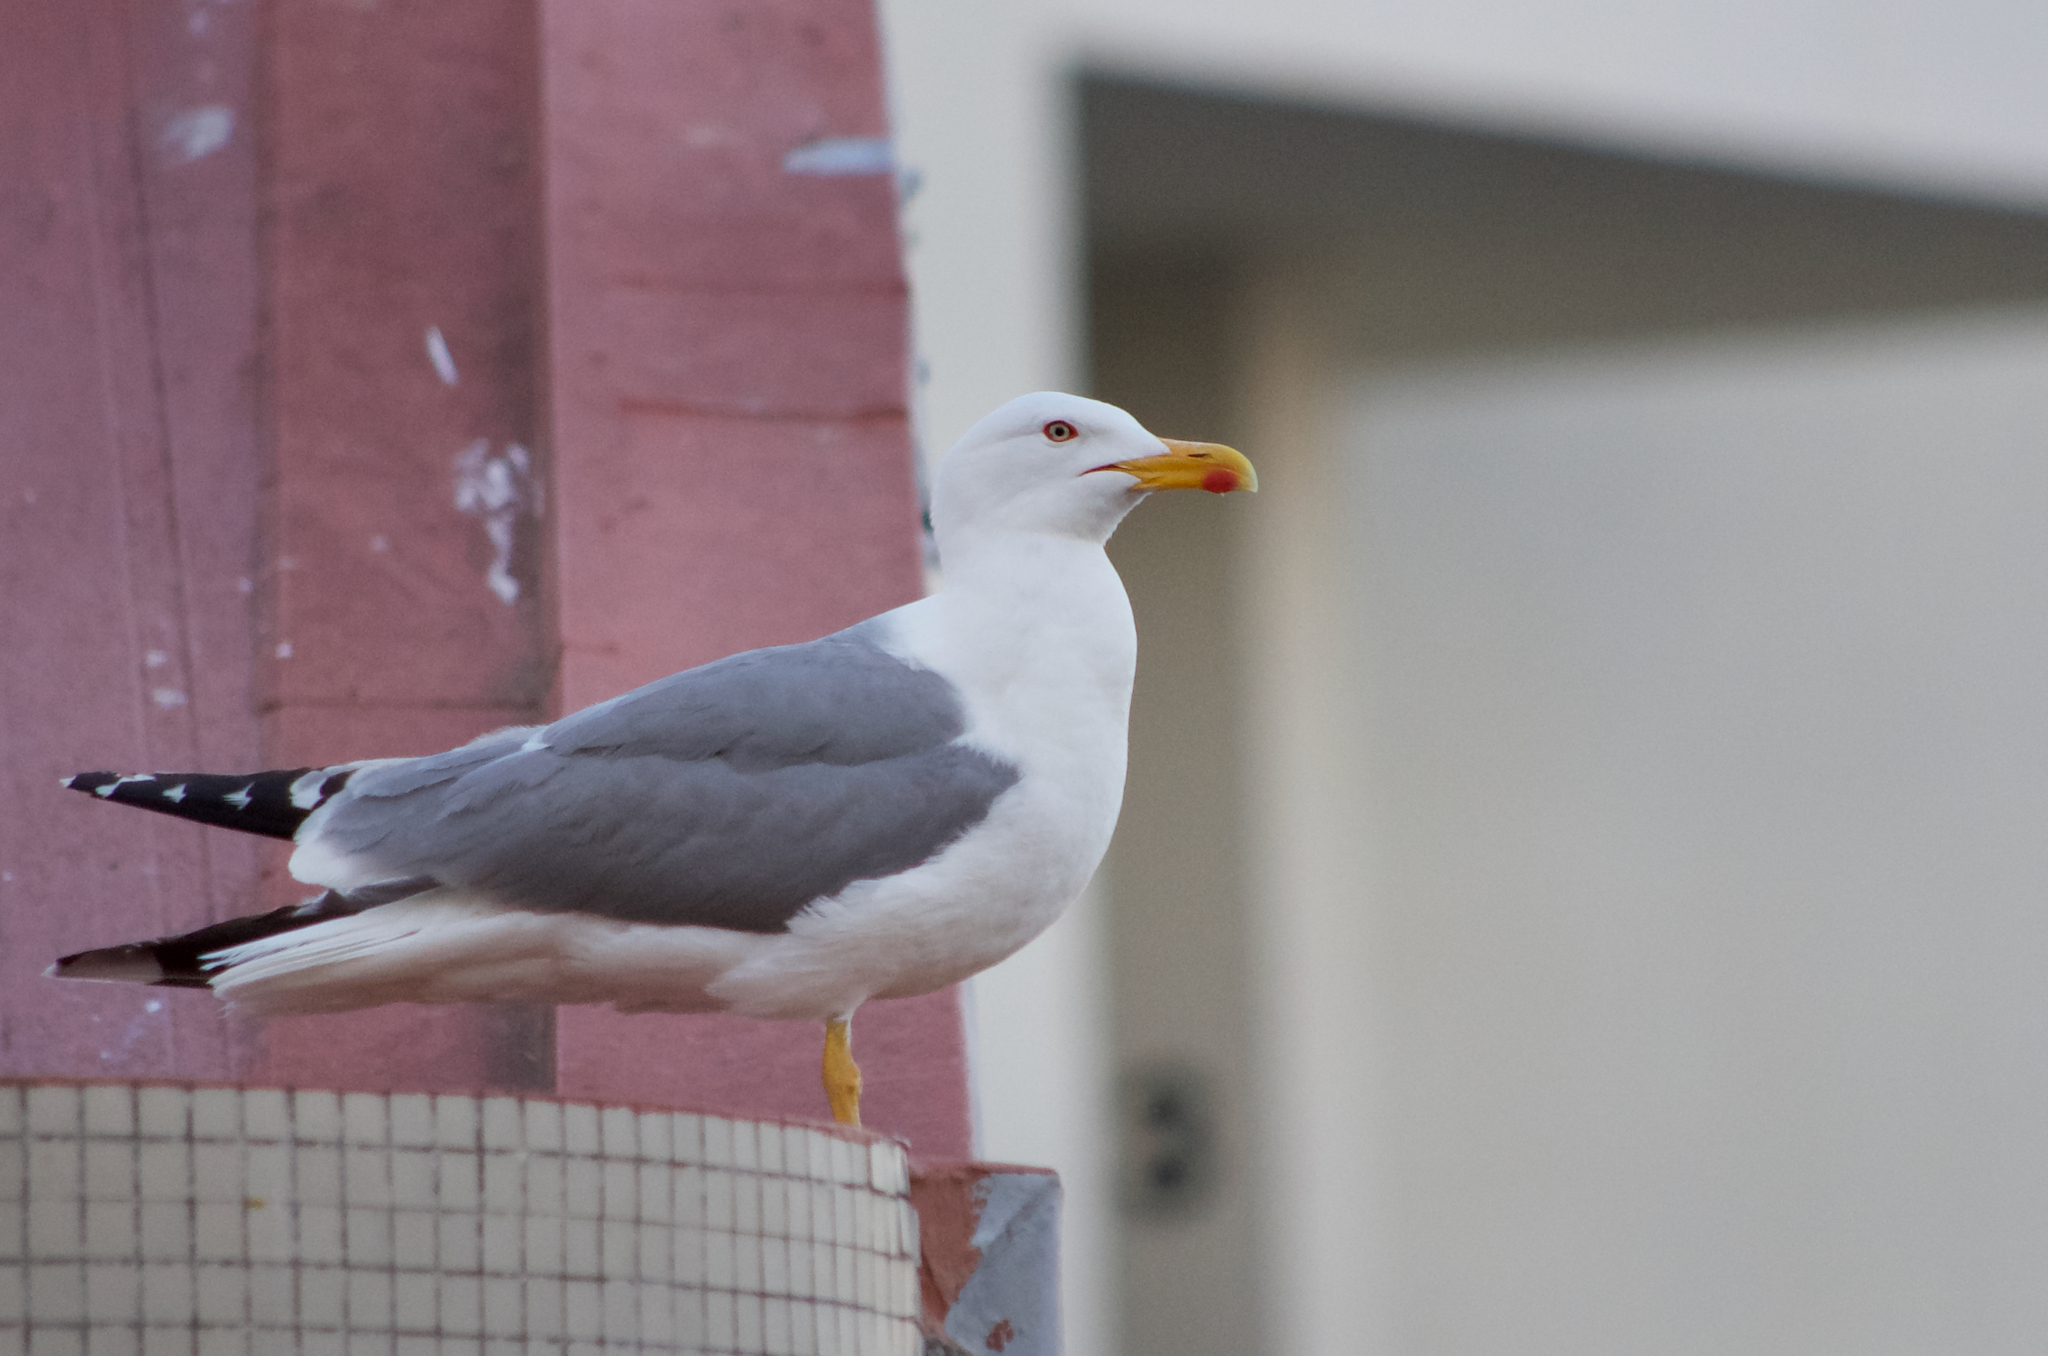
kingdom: Animalia
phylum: Chordata
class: Aves
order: Charadriiformes
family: Laridae
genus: Larus
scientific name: Larus michahellis
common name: Yellow-legged gull
